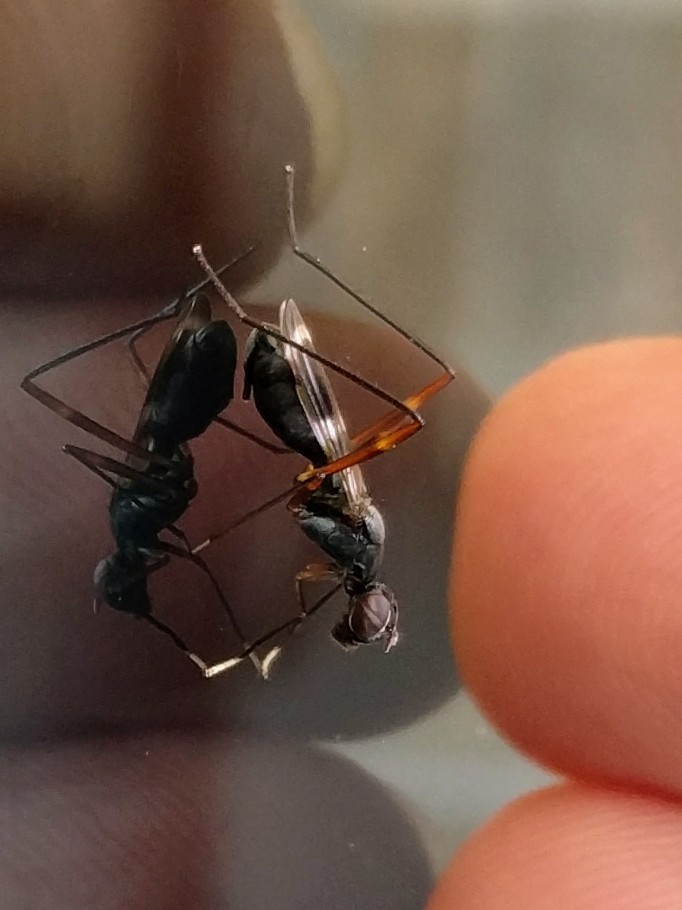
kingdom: Animalia
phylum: Arthropoda
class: Insecta
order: Diptera
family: Micropezidae
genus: Taeniaptera
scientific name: Taeniaptera trivittata
